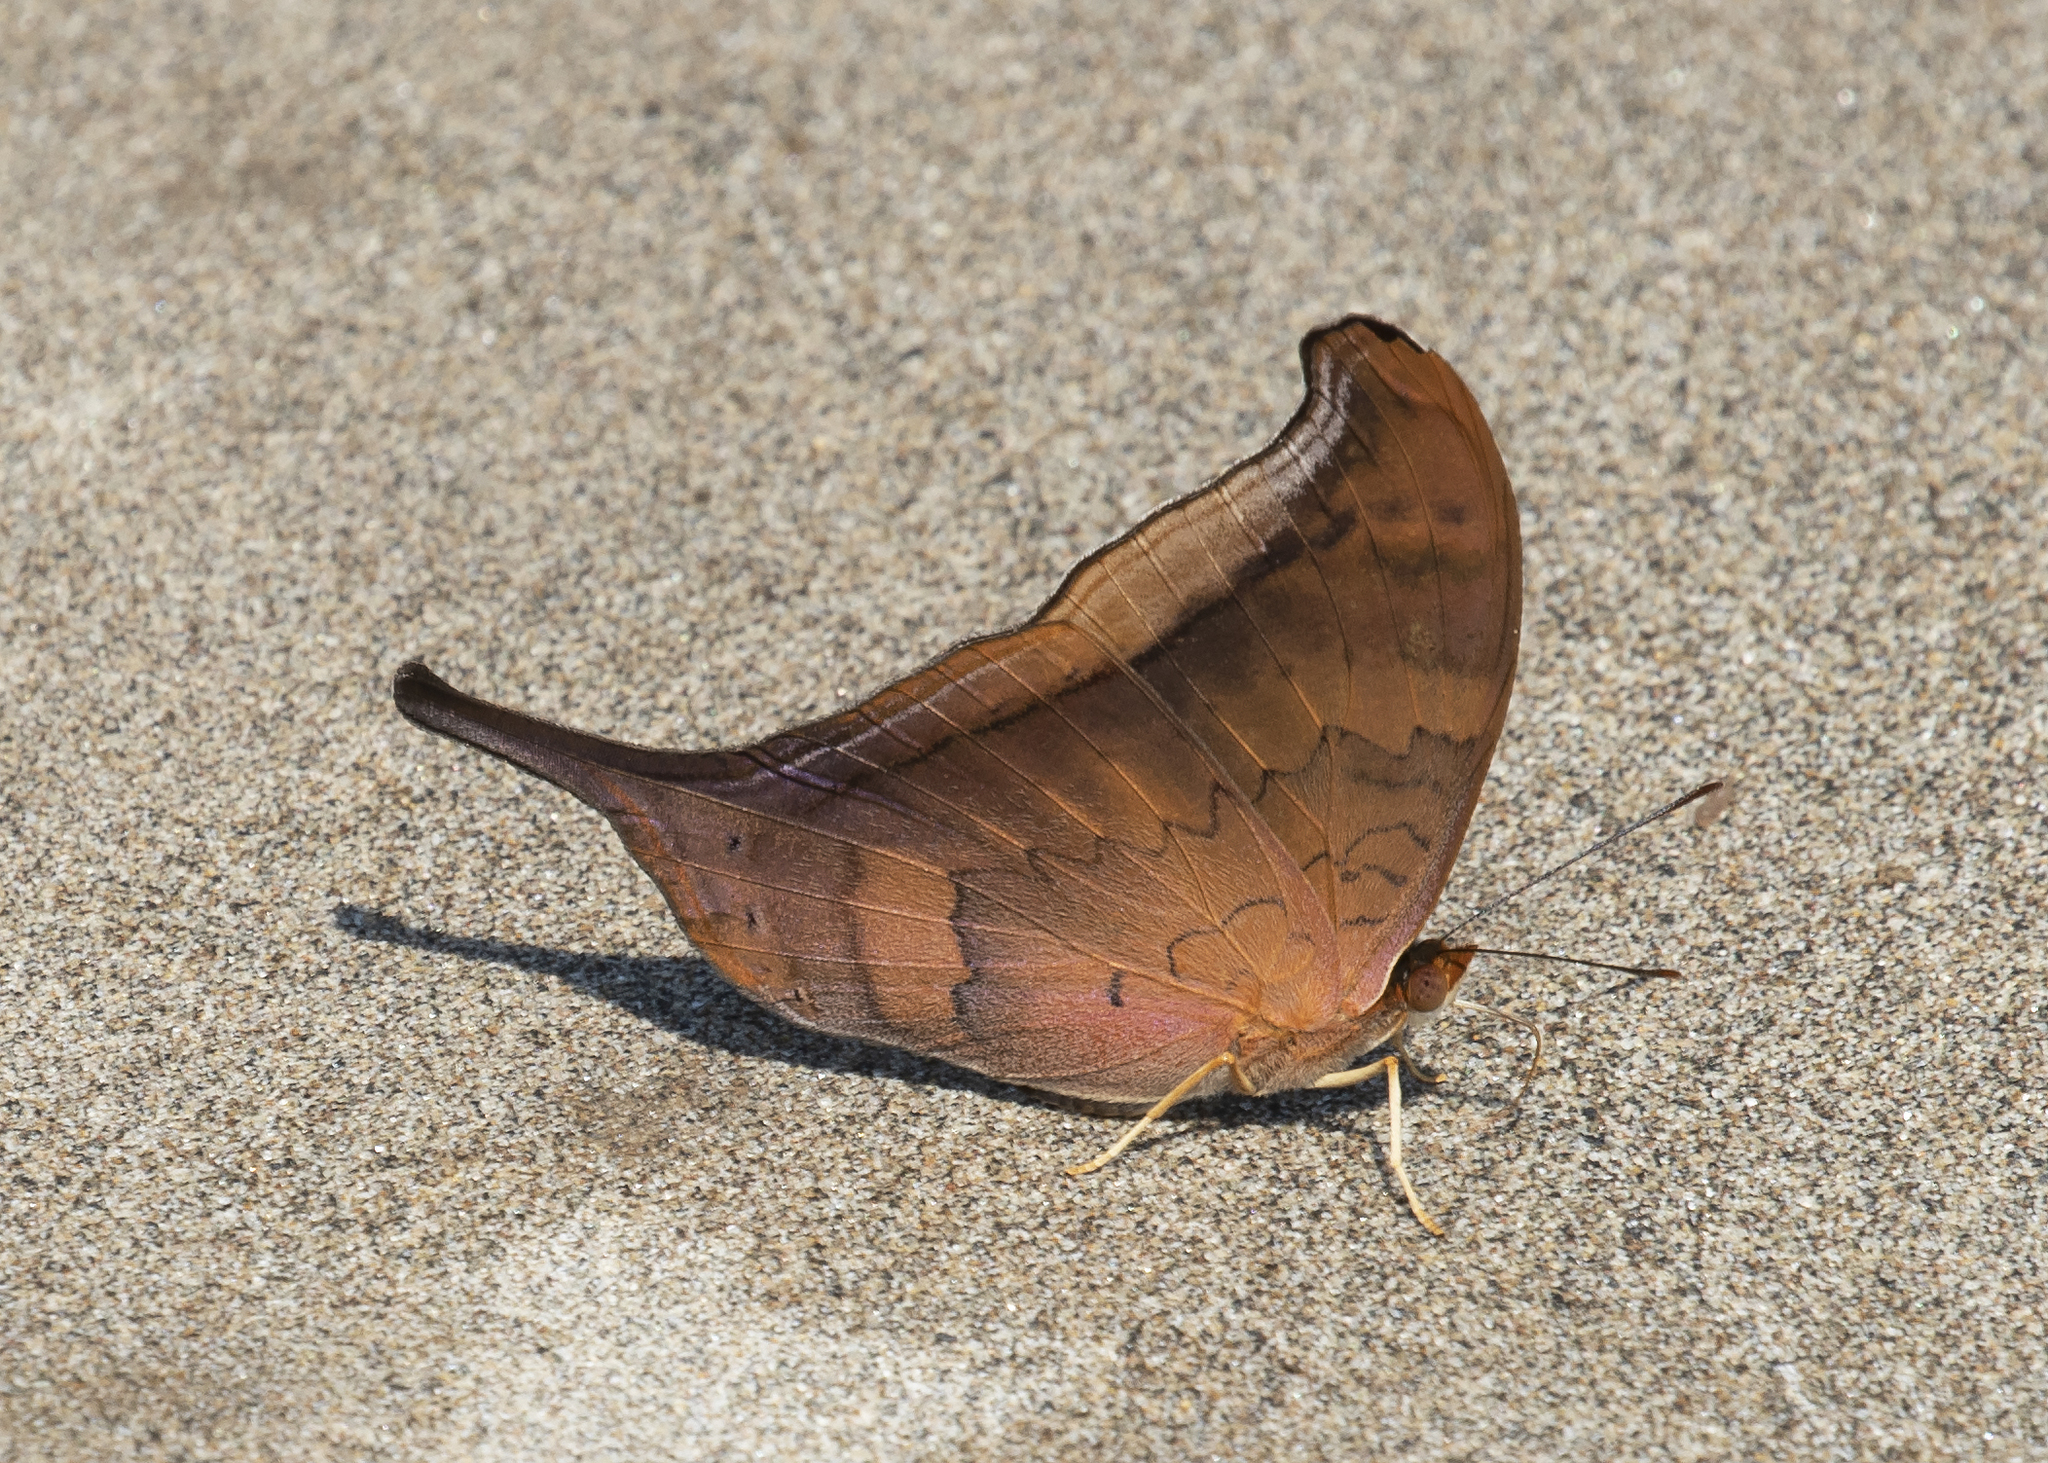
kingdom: Animalia
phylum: Arthropoda
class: Insecta
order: Lepidoptera
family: Nymphalidae
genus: Marpesia
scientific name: Marpesia furcula
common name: Sunset daggerwing
